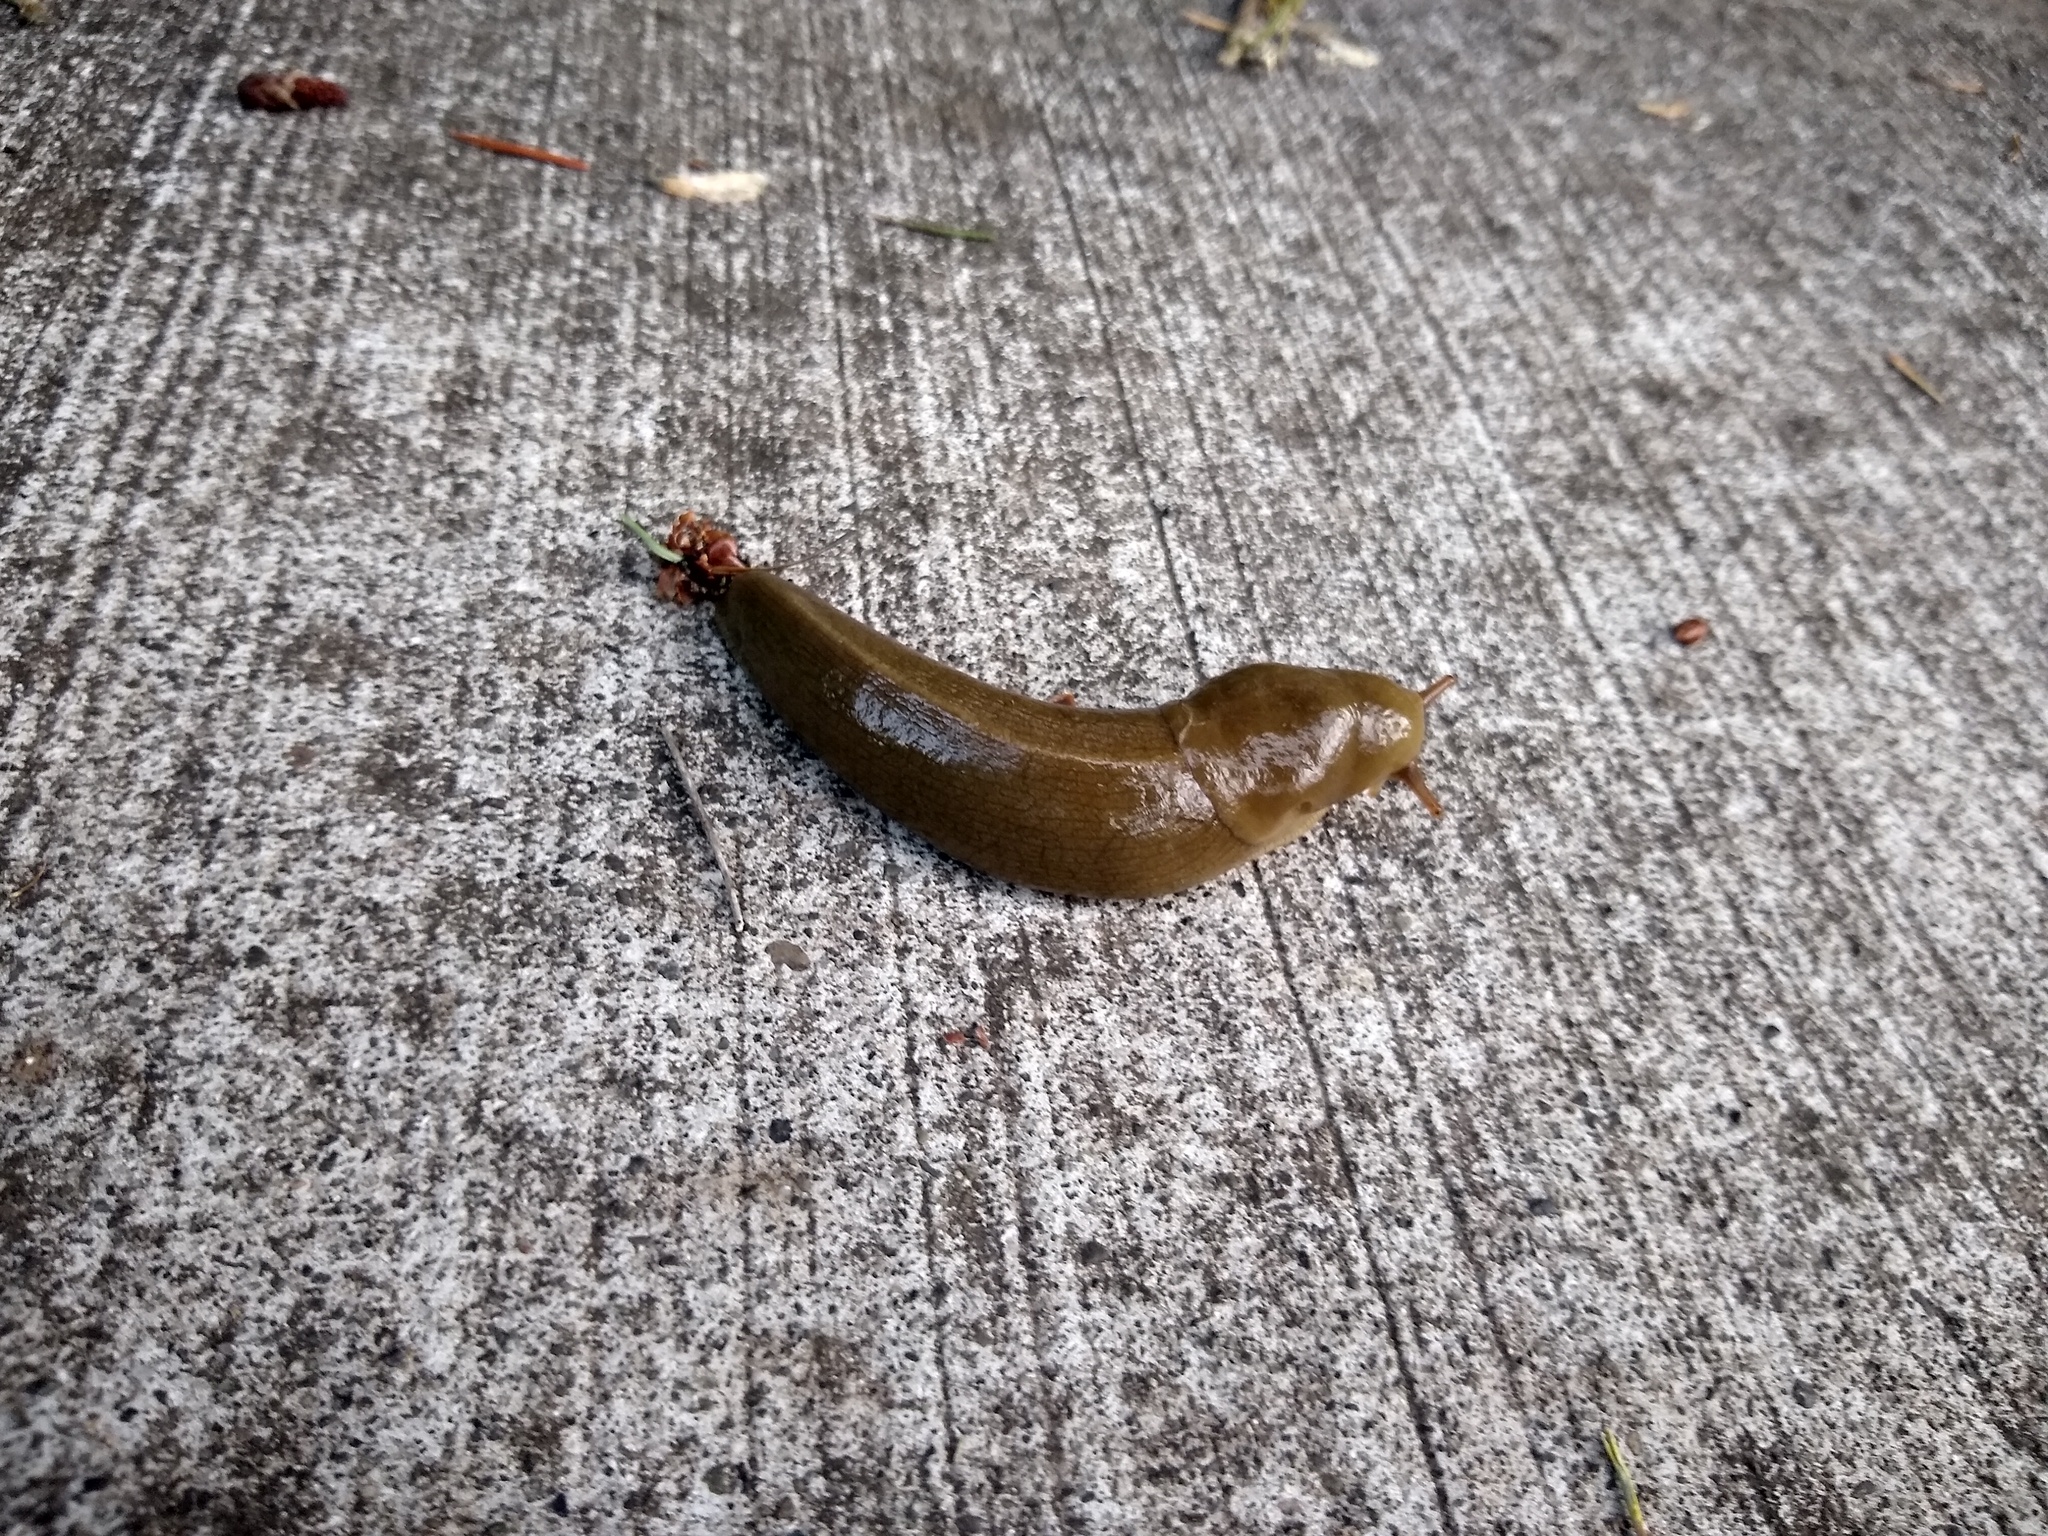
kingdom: Animalia
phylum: Mollusca
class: Gastropoda
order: Stylommatophora
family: Ariolimacidae
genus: Ariolimax
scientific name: Ariolimax columbianus
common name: Pacific banana slug
